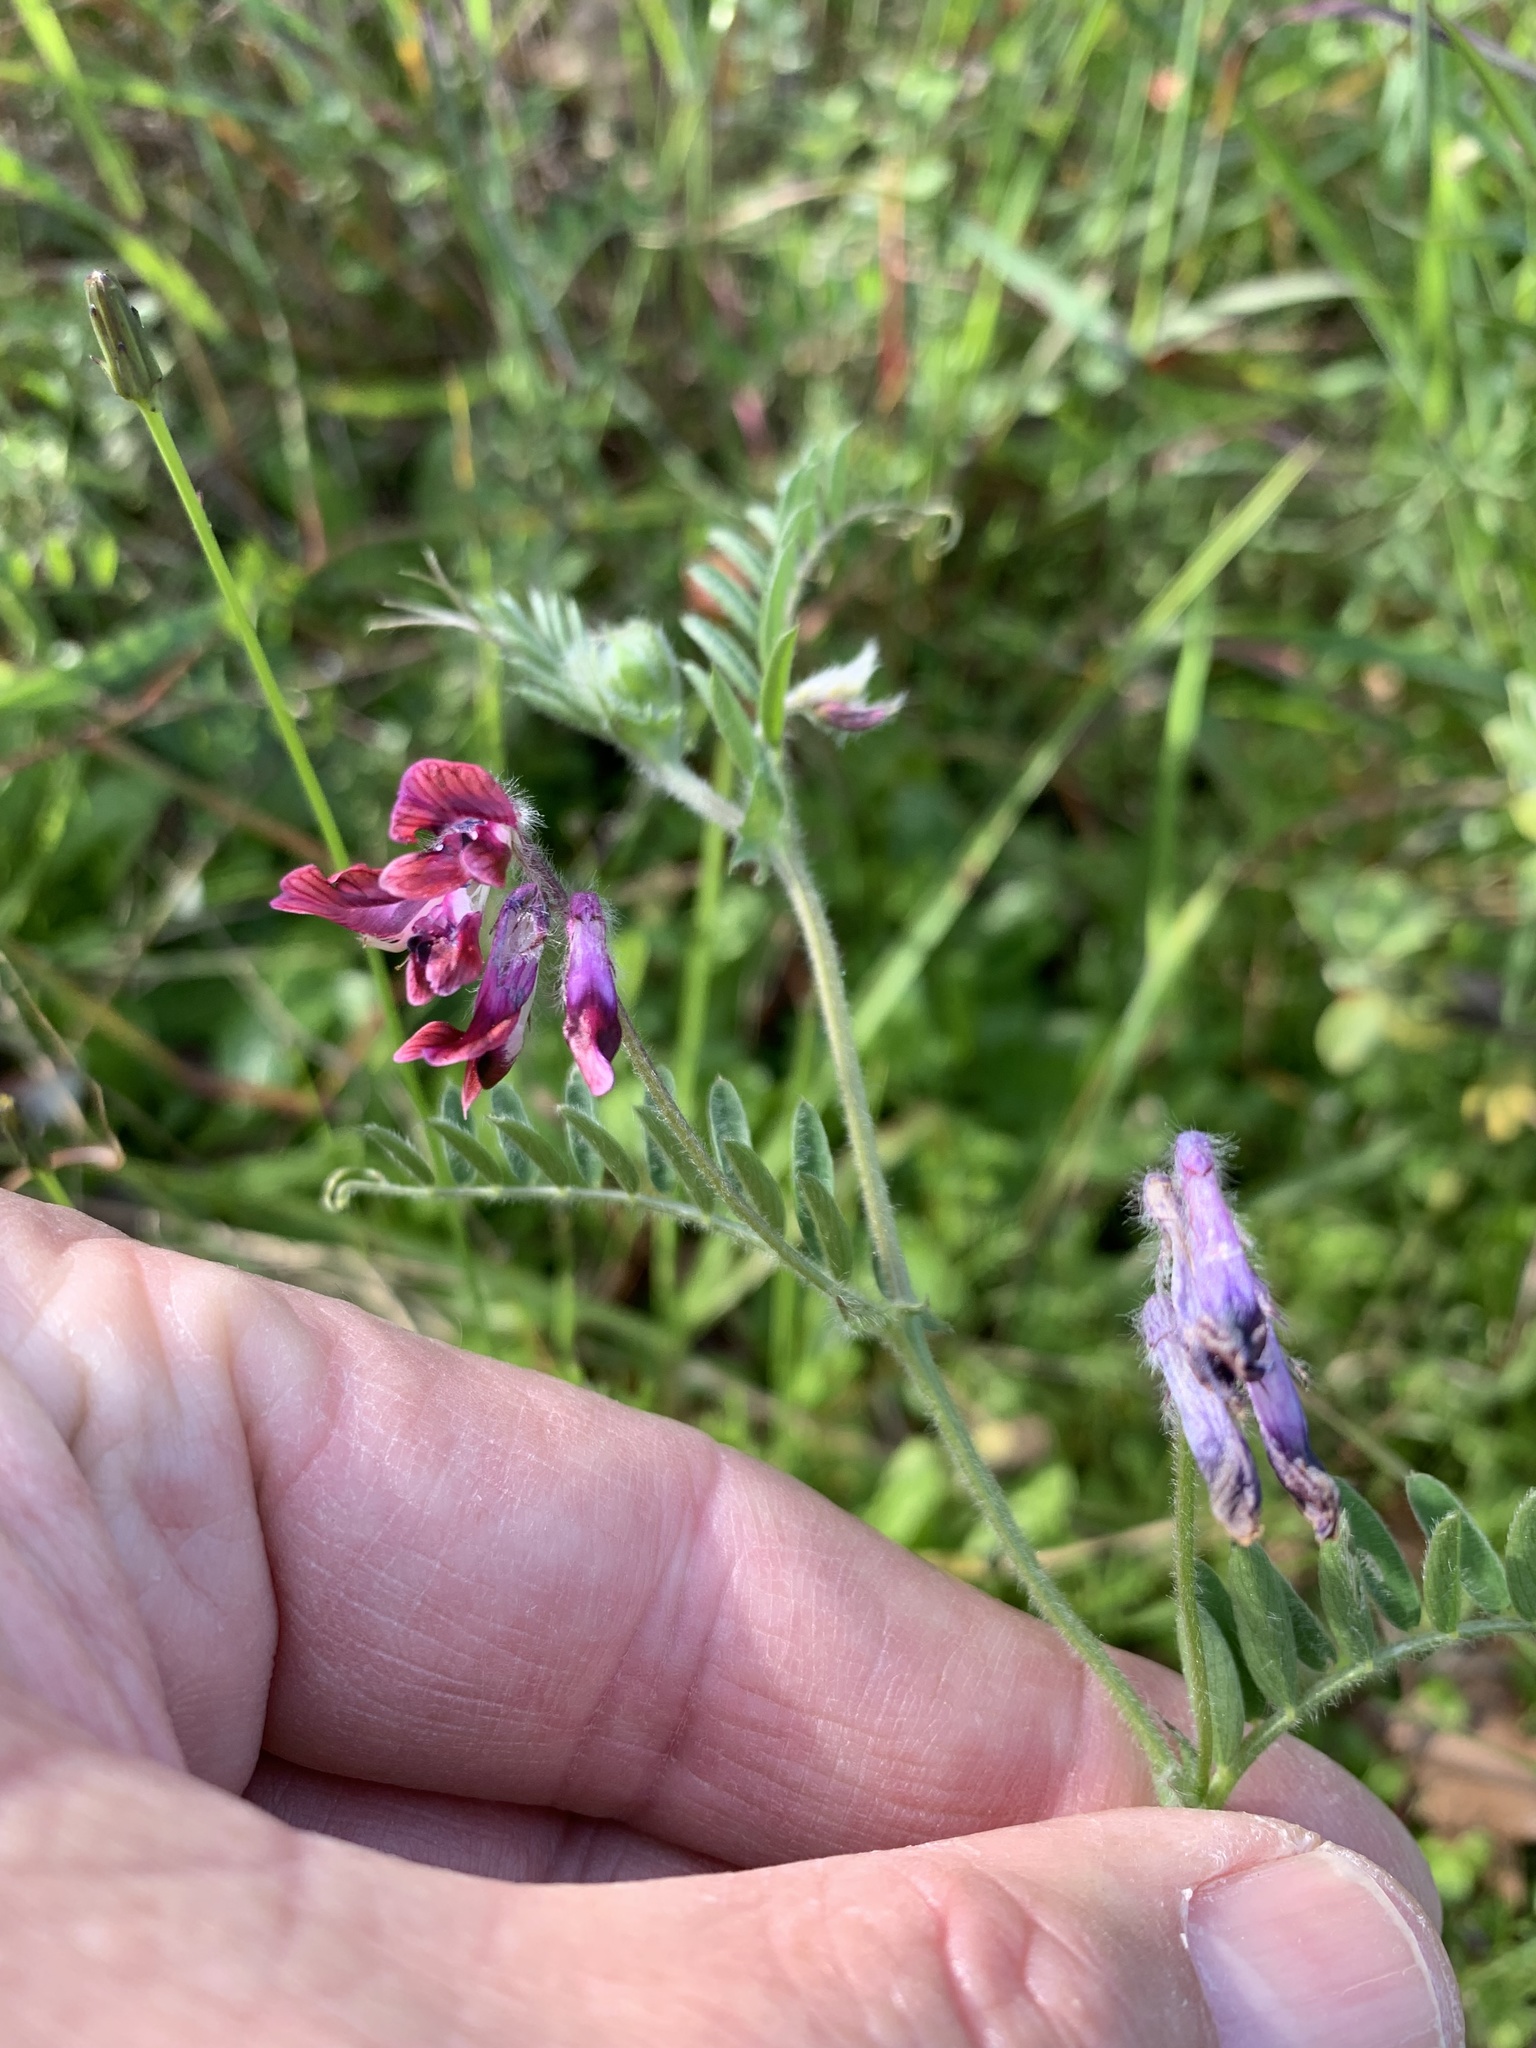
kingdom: Plantae
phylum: Tracheophyta
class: Magnoliopsida
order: Fabales
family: Fabaceae
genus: Vicia
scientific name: Vicia benghalensis
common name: Purple vetch
